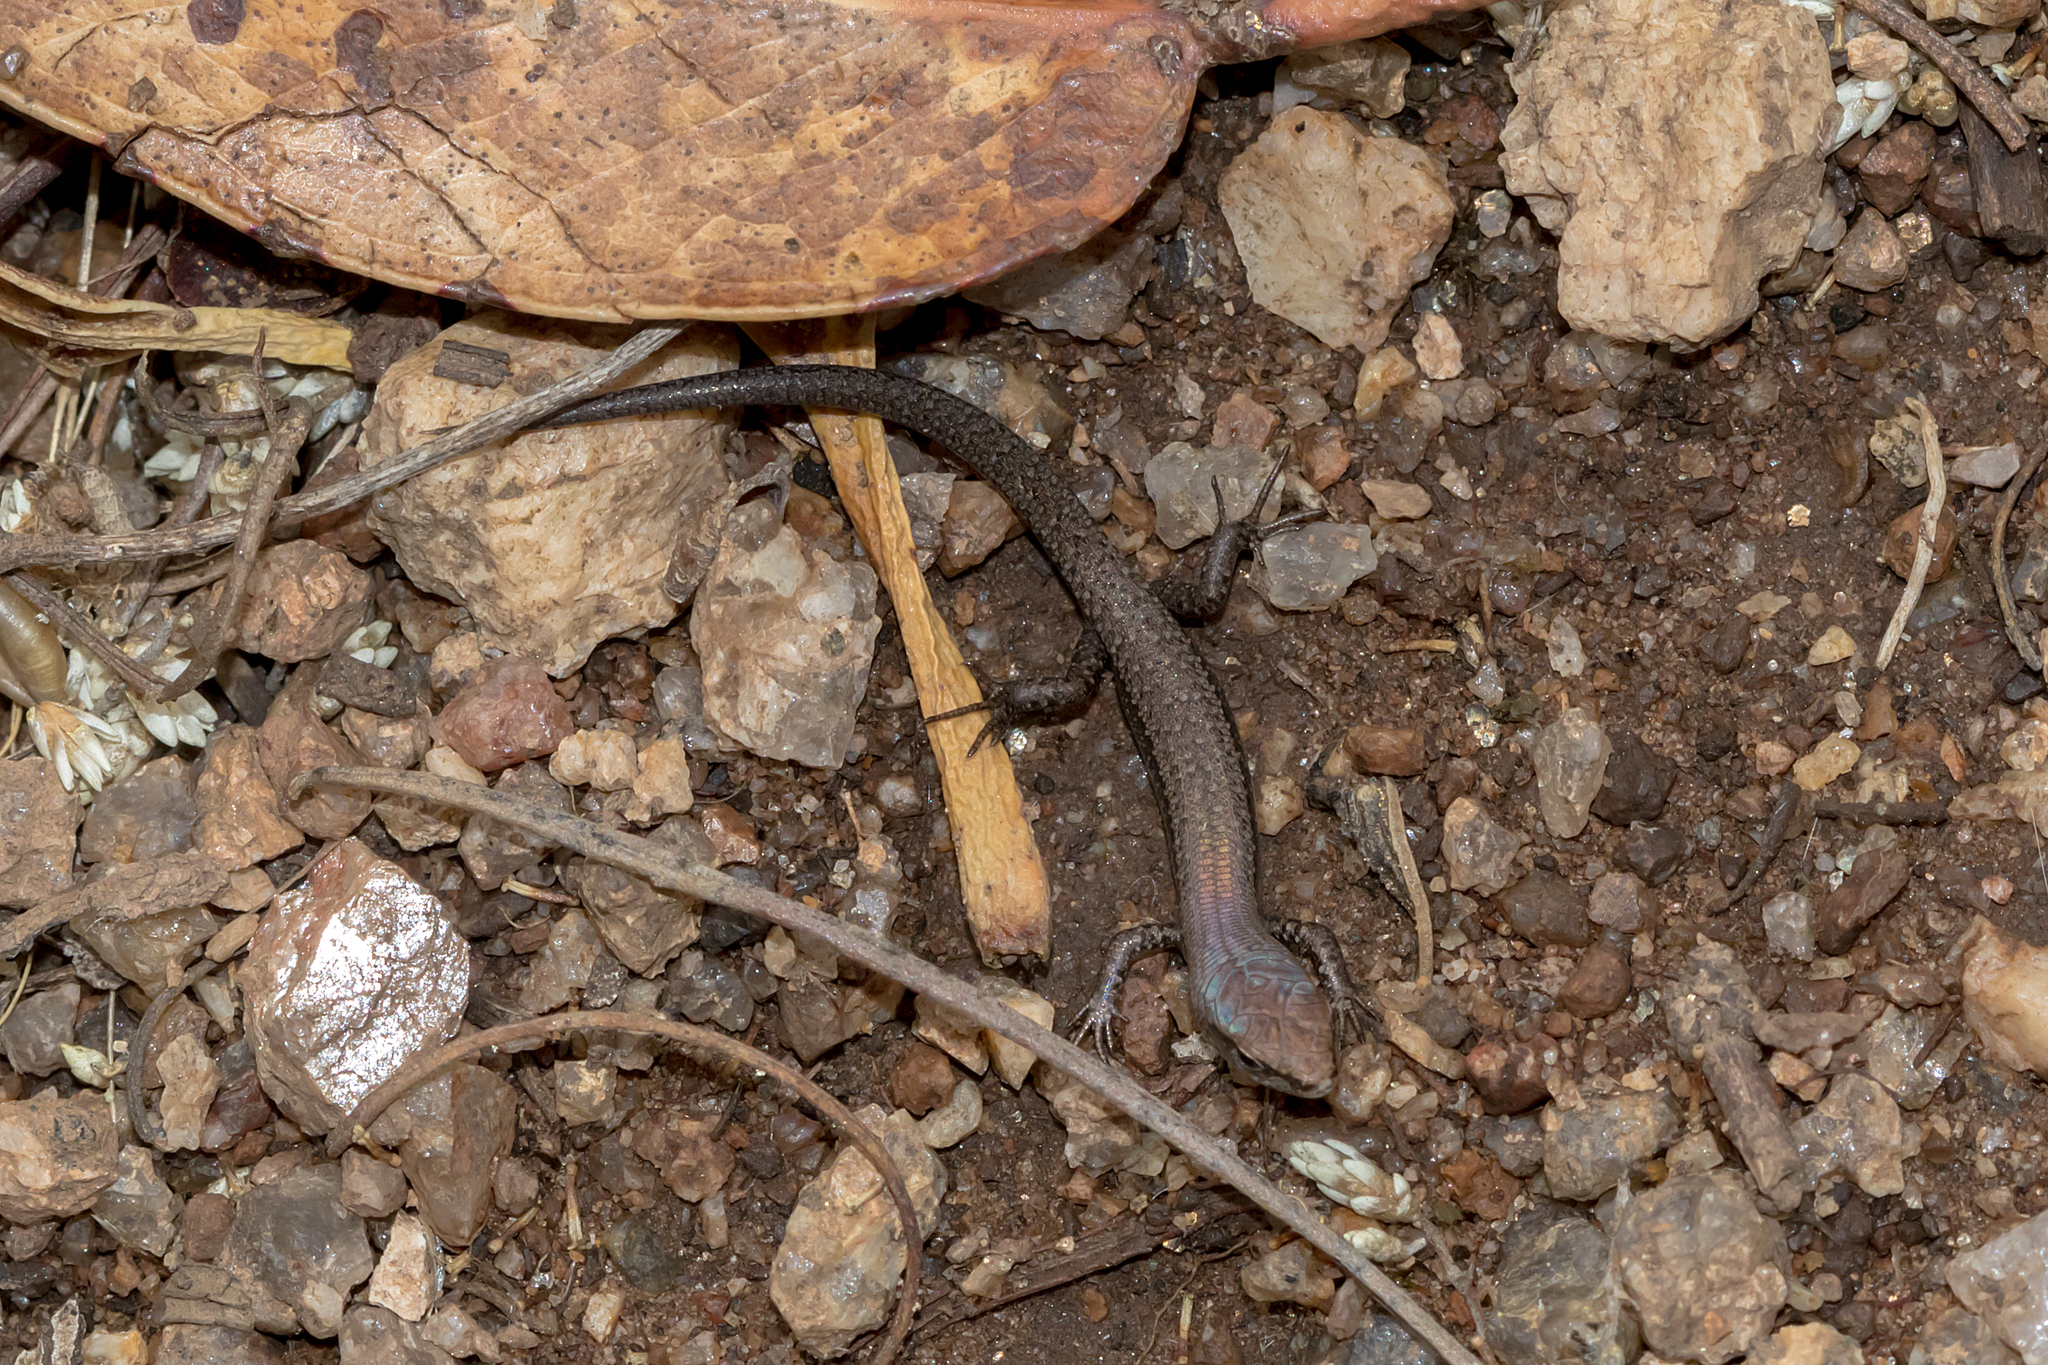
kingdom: Animalia
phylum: Chordata
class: Squamata
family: Scincidae
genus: Lampropholis
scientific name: Lampropholis guichenoti
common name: Garden skink
